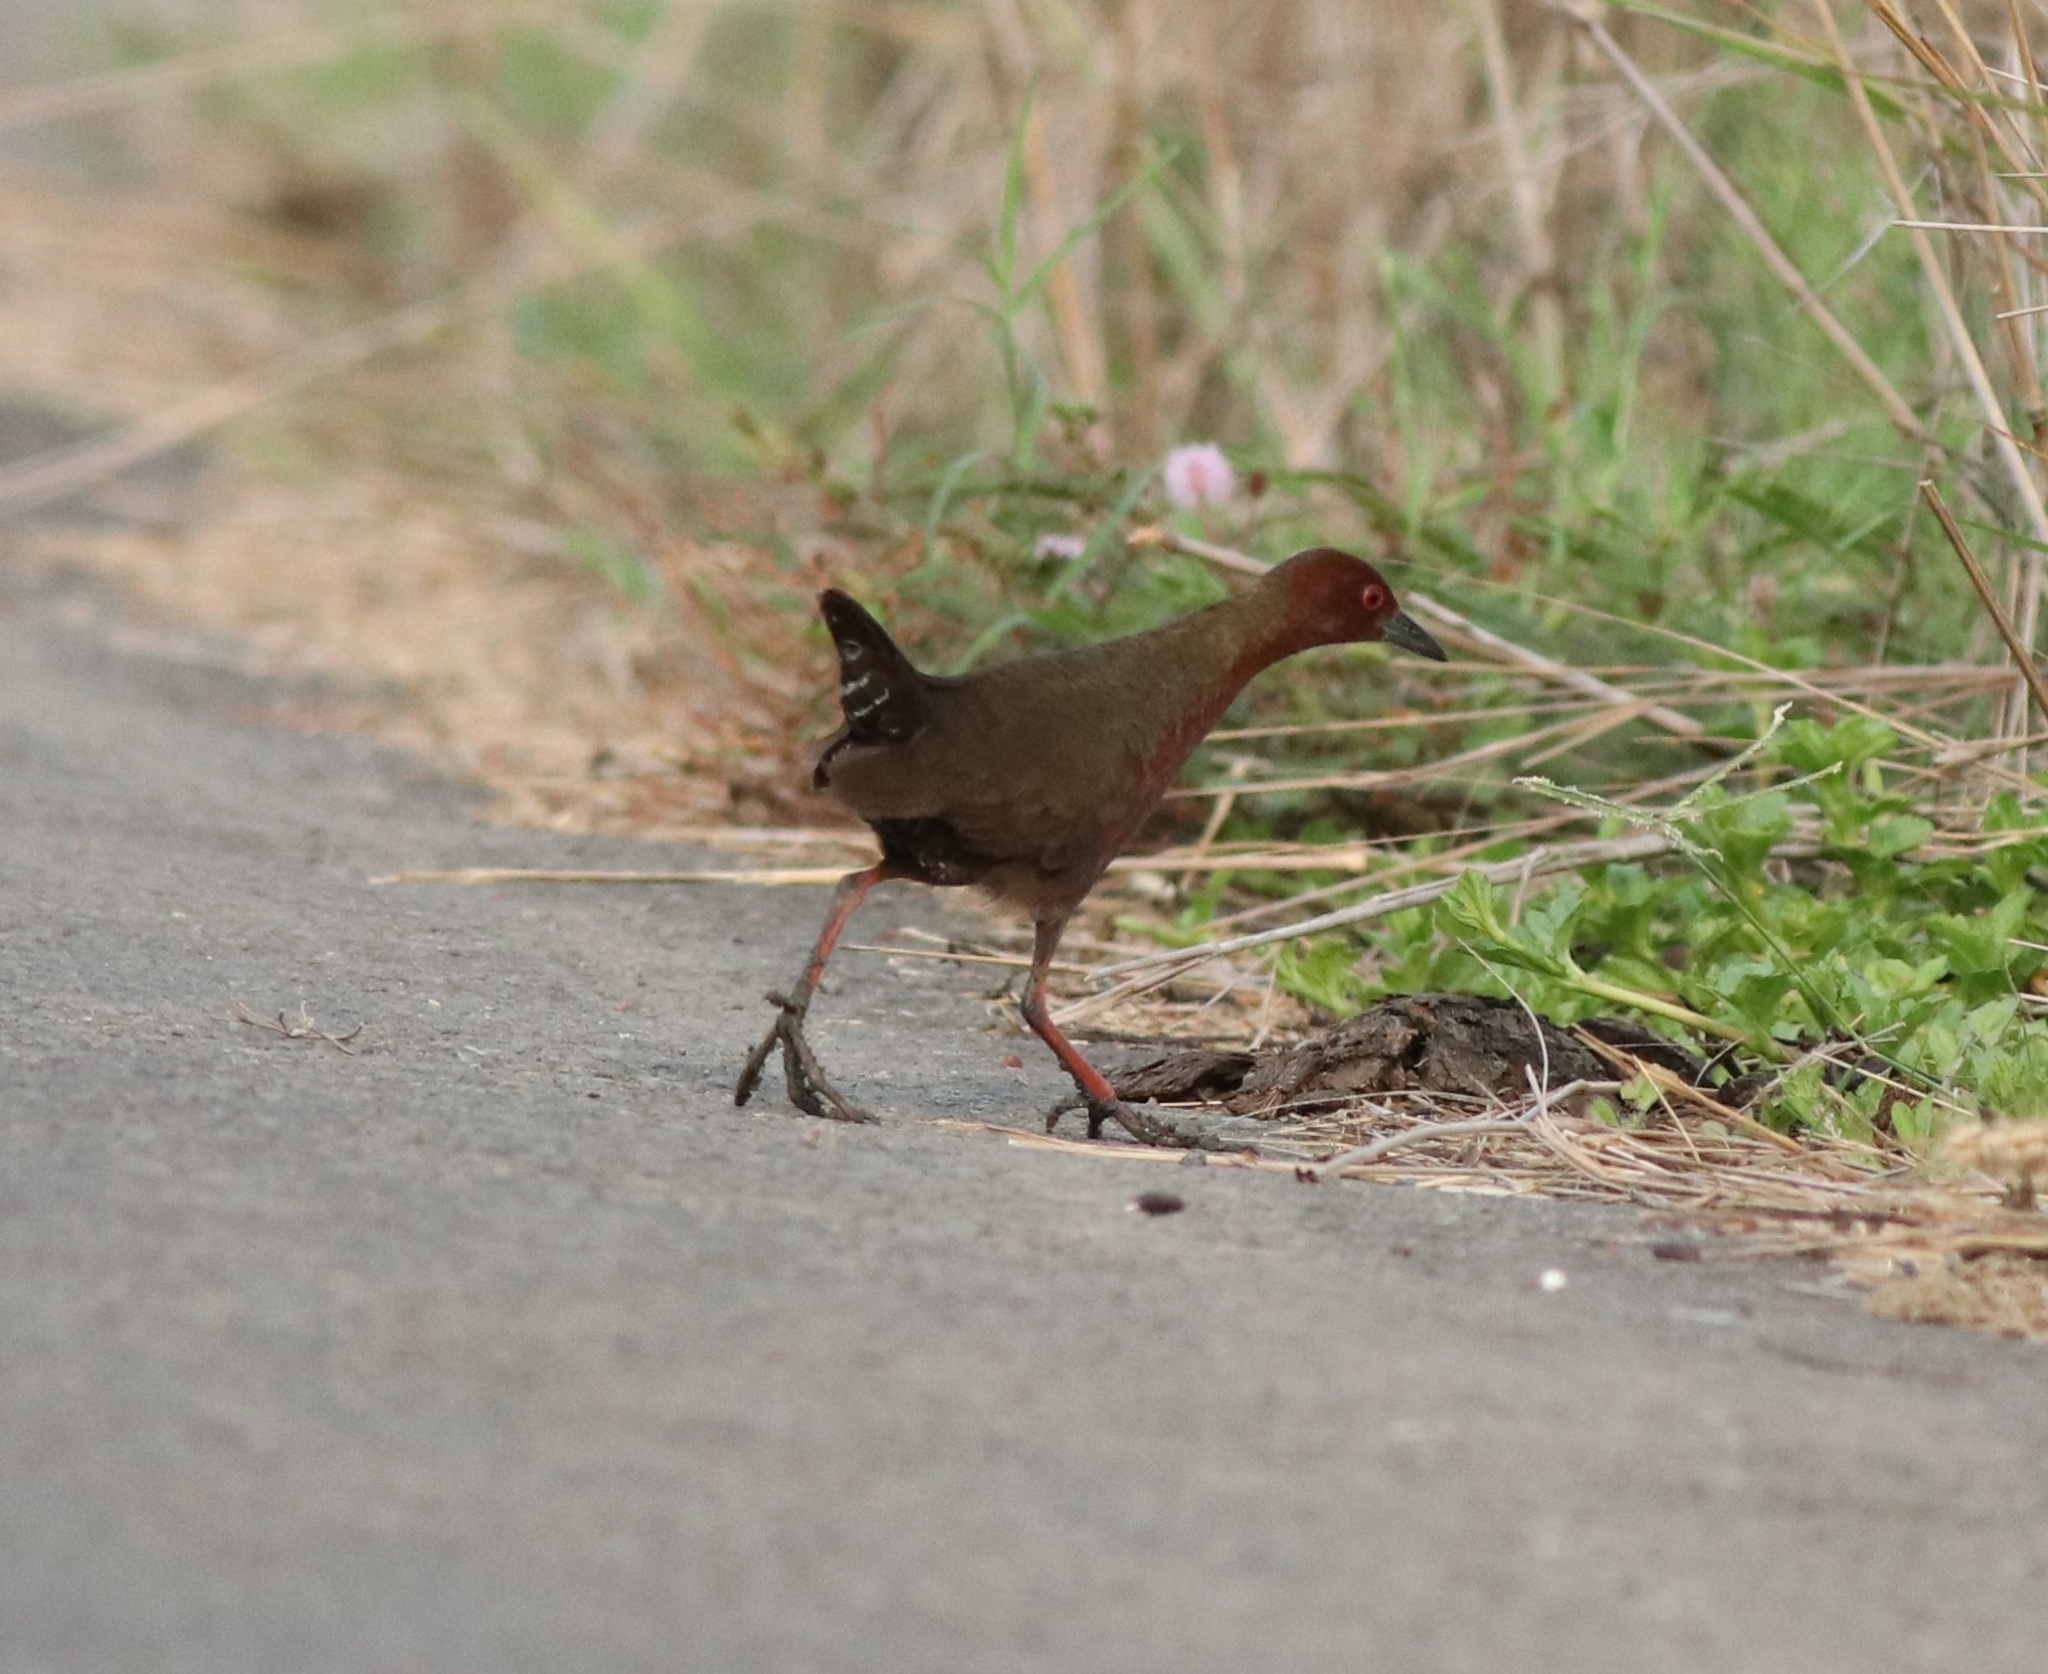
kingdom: Animalia
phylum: Chordata
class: Aves
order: Gruiformes
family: Rallidae
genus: Porzana
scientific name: Porzana fusca
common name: Ruddy-breasted crake
